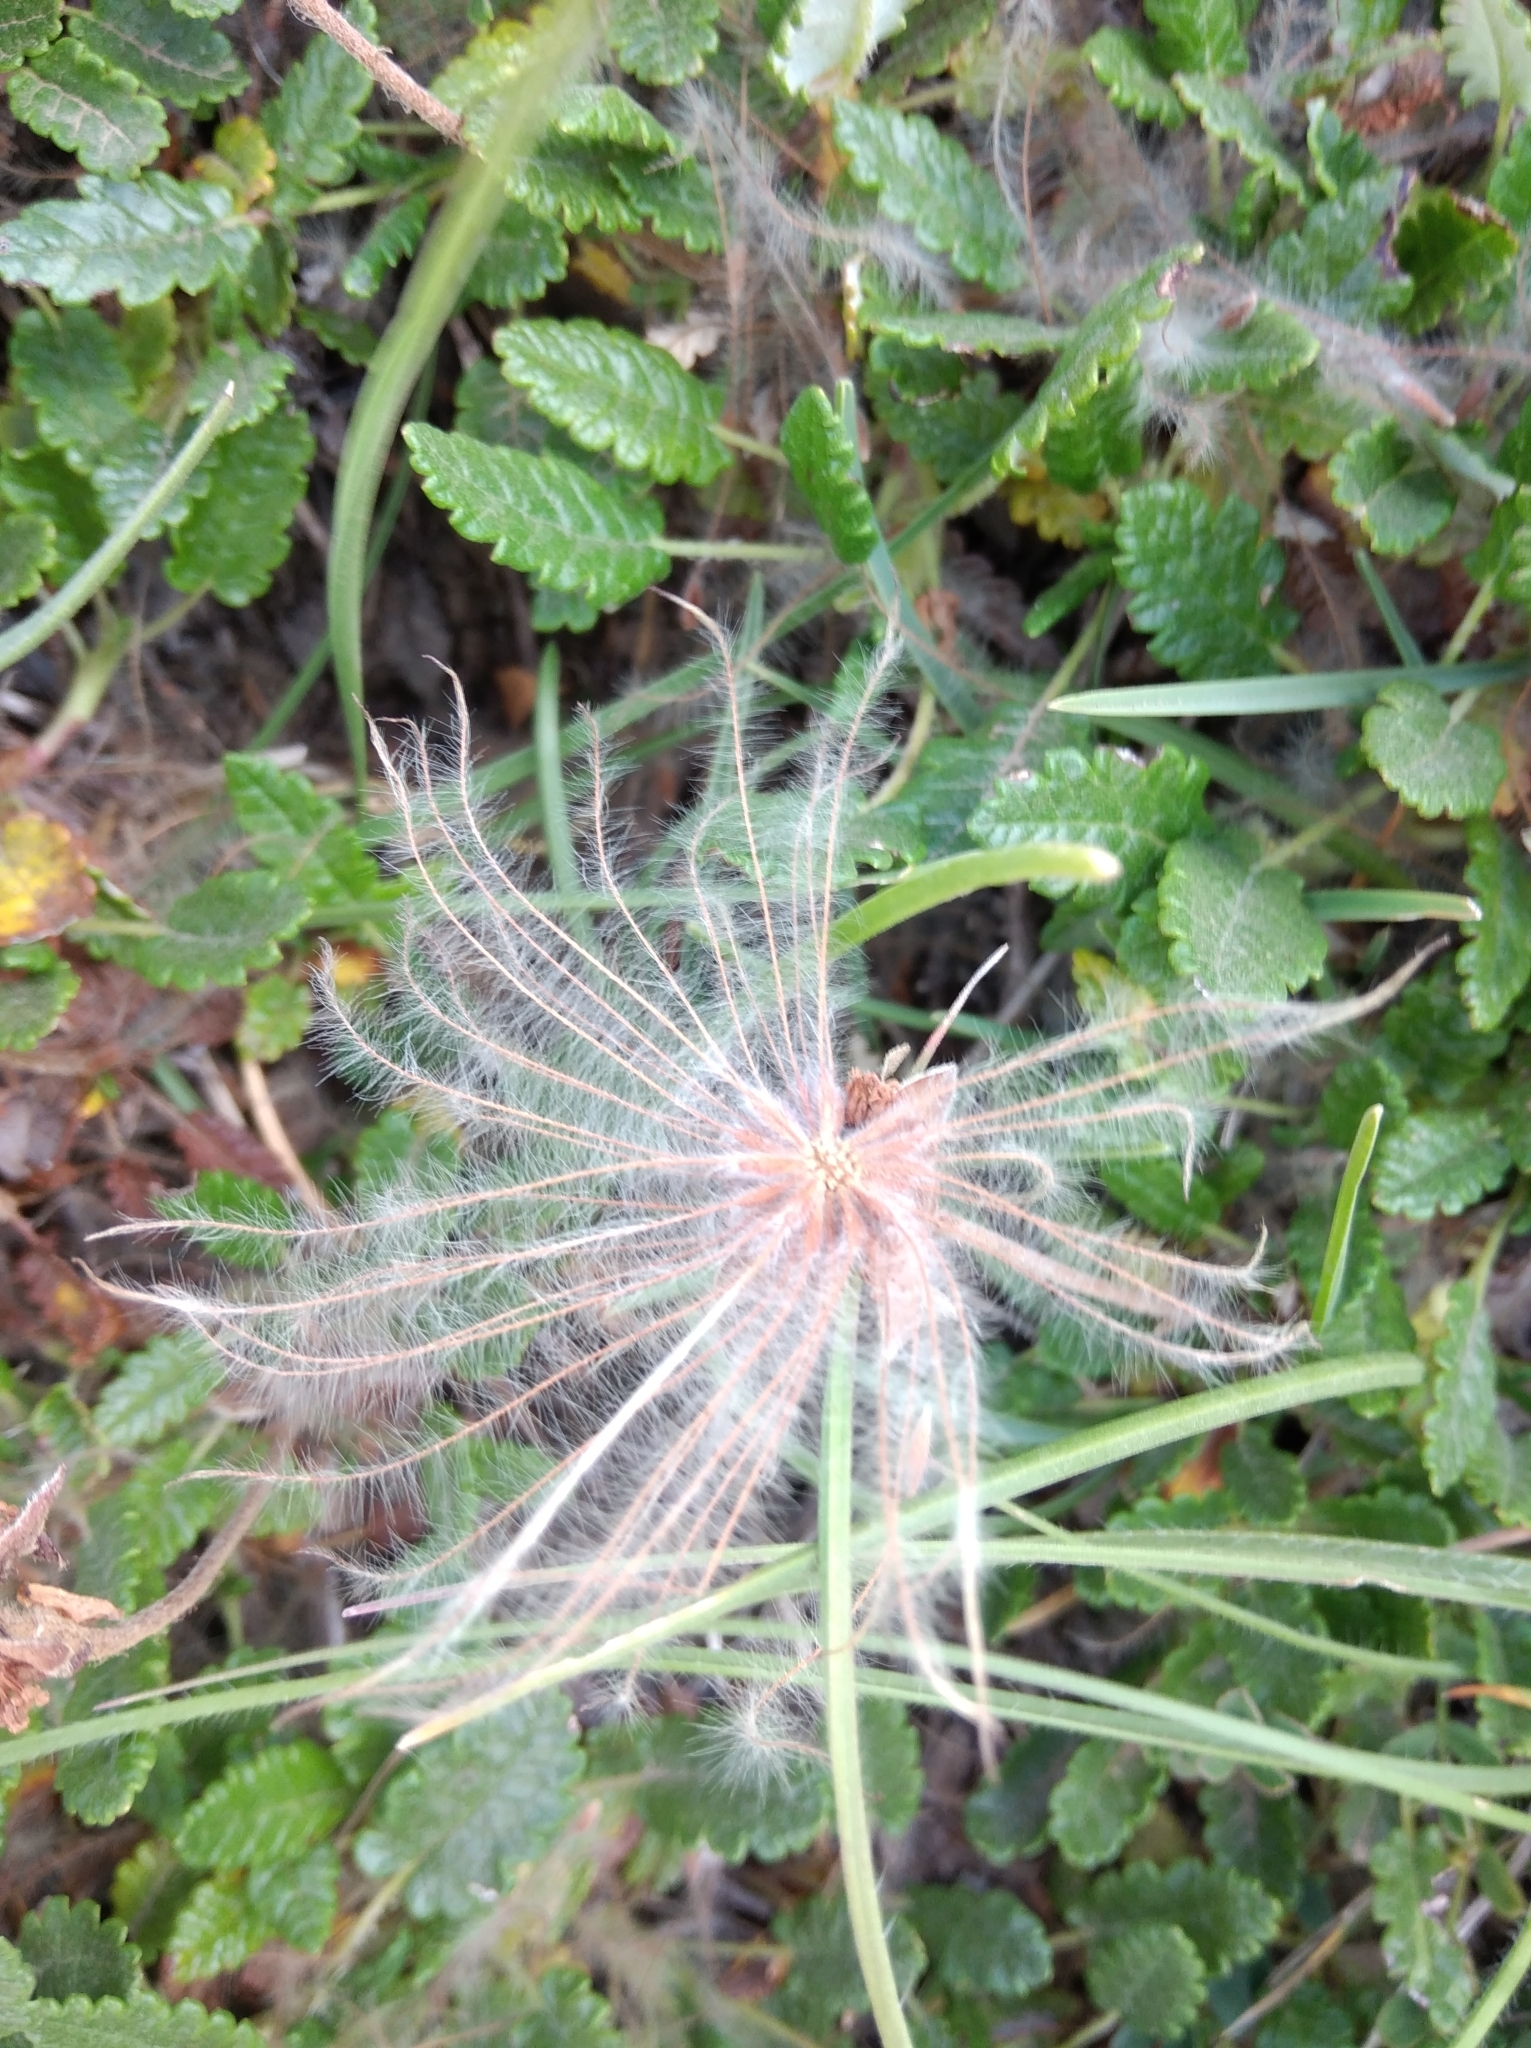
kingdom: Plantae
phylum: Tracheophyta
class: Magnoliopsida
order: Rosales
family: Rosaceae
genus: Dryas
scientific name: Dryas octopetala
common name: Eight-petal mountain-avens
